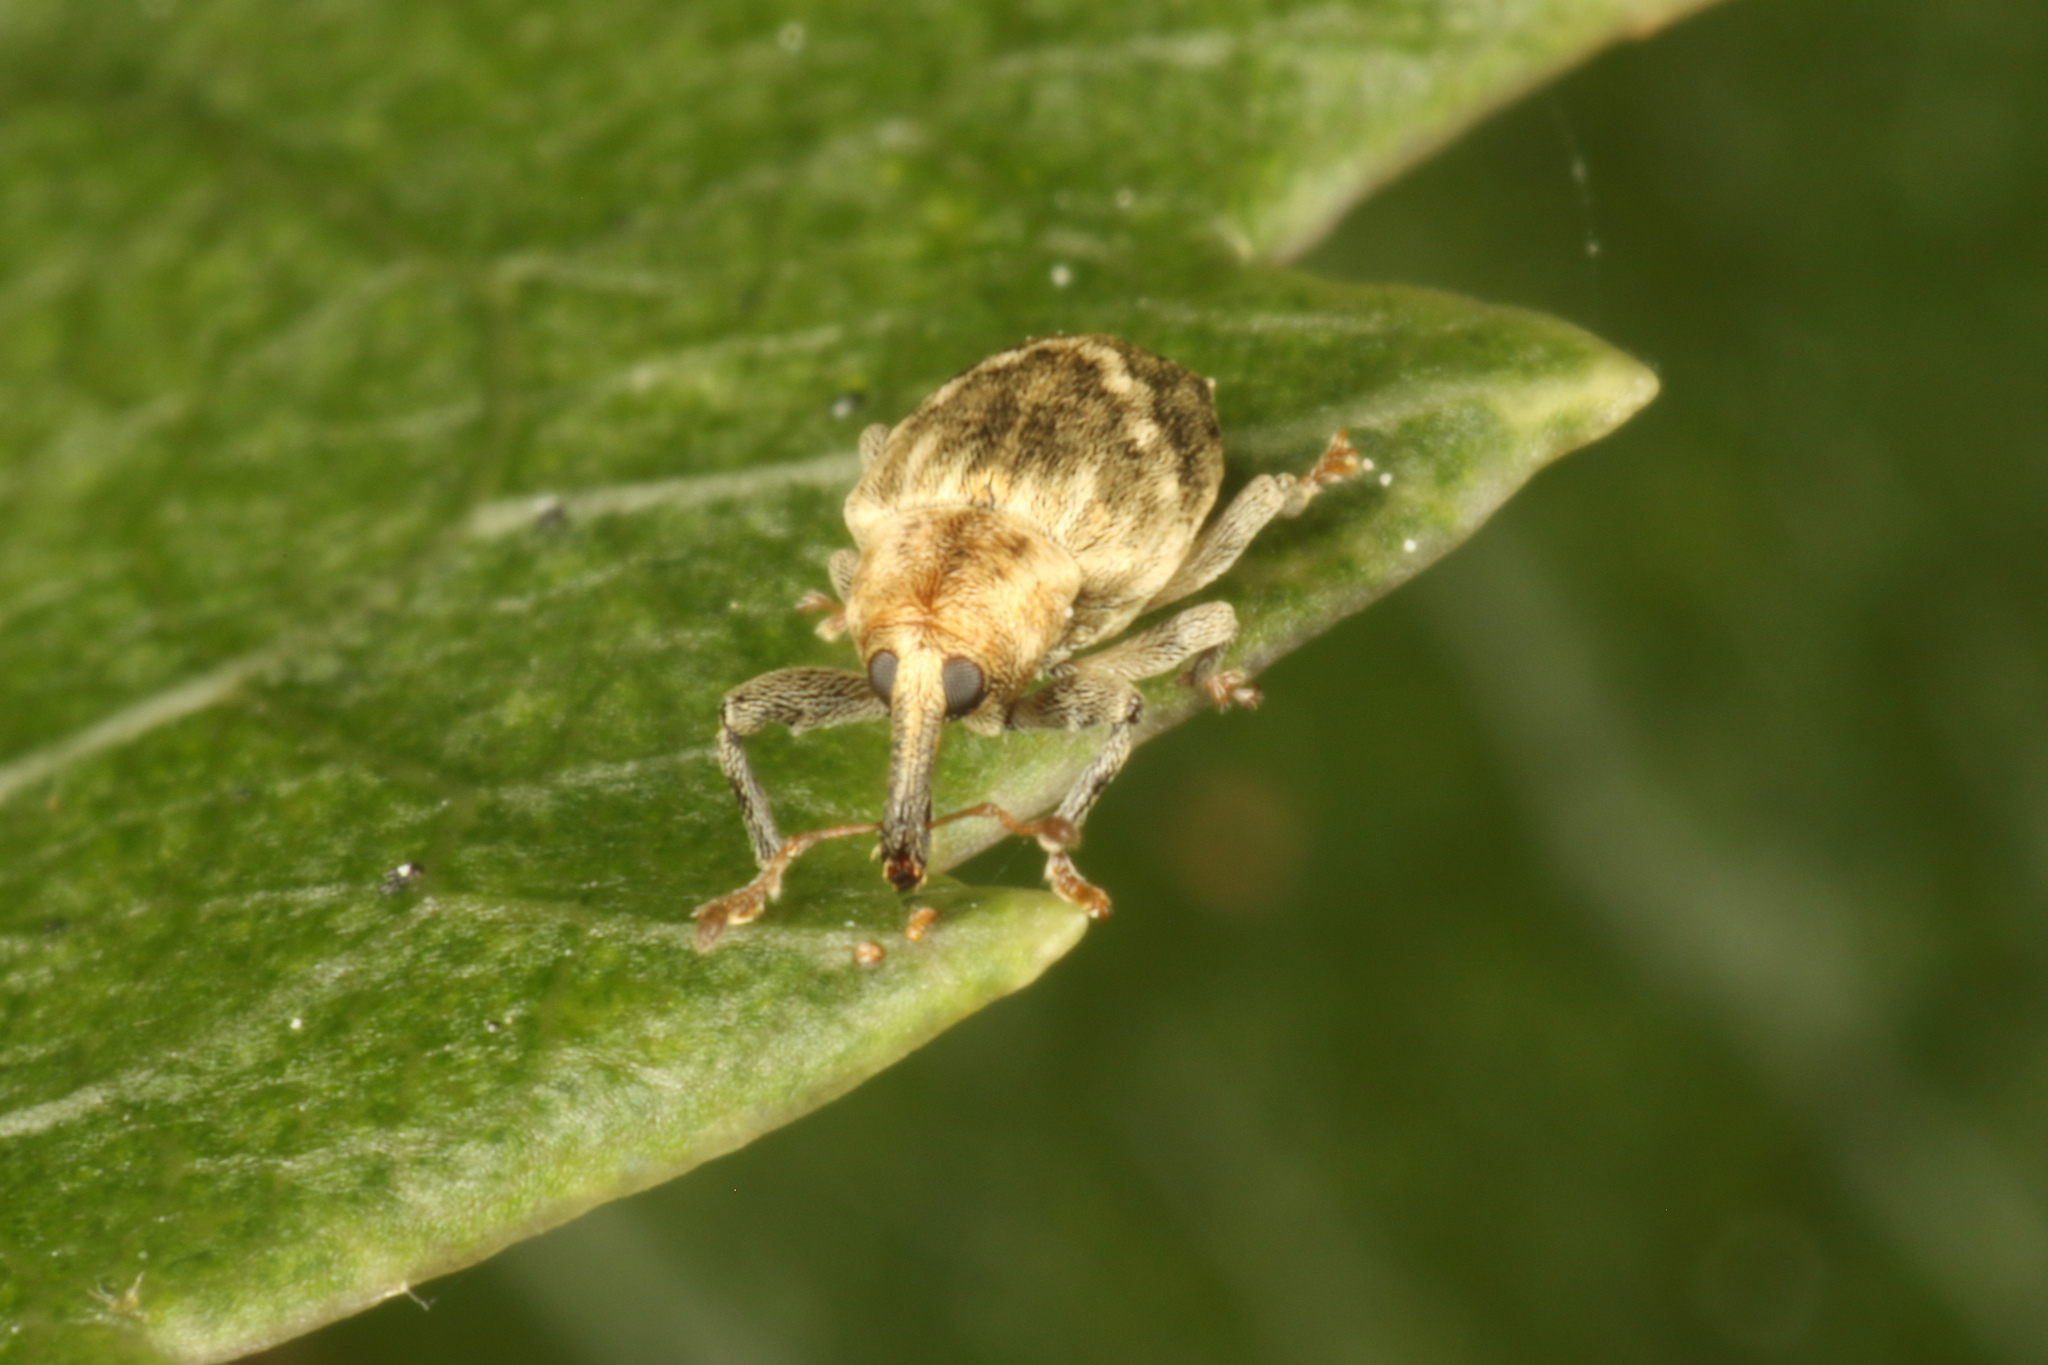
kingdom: Animalia
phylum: Arthropoda
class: Insecta
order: Coleoptera
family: Curculionidae
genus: Aneuma
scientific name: Aneuma compta
